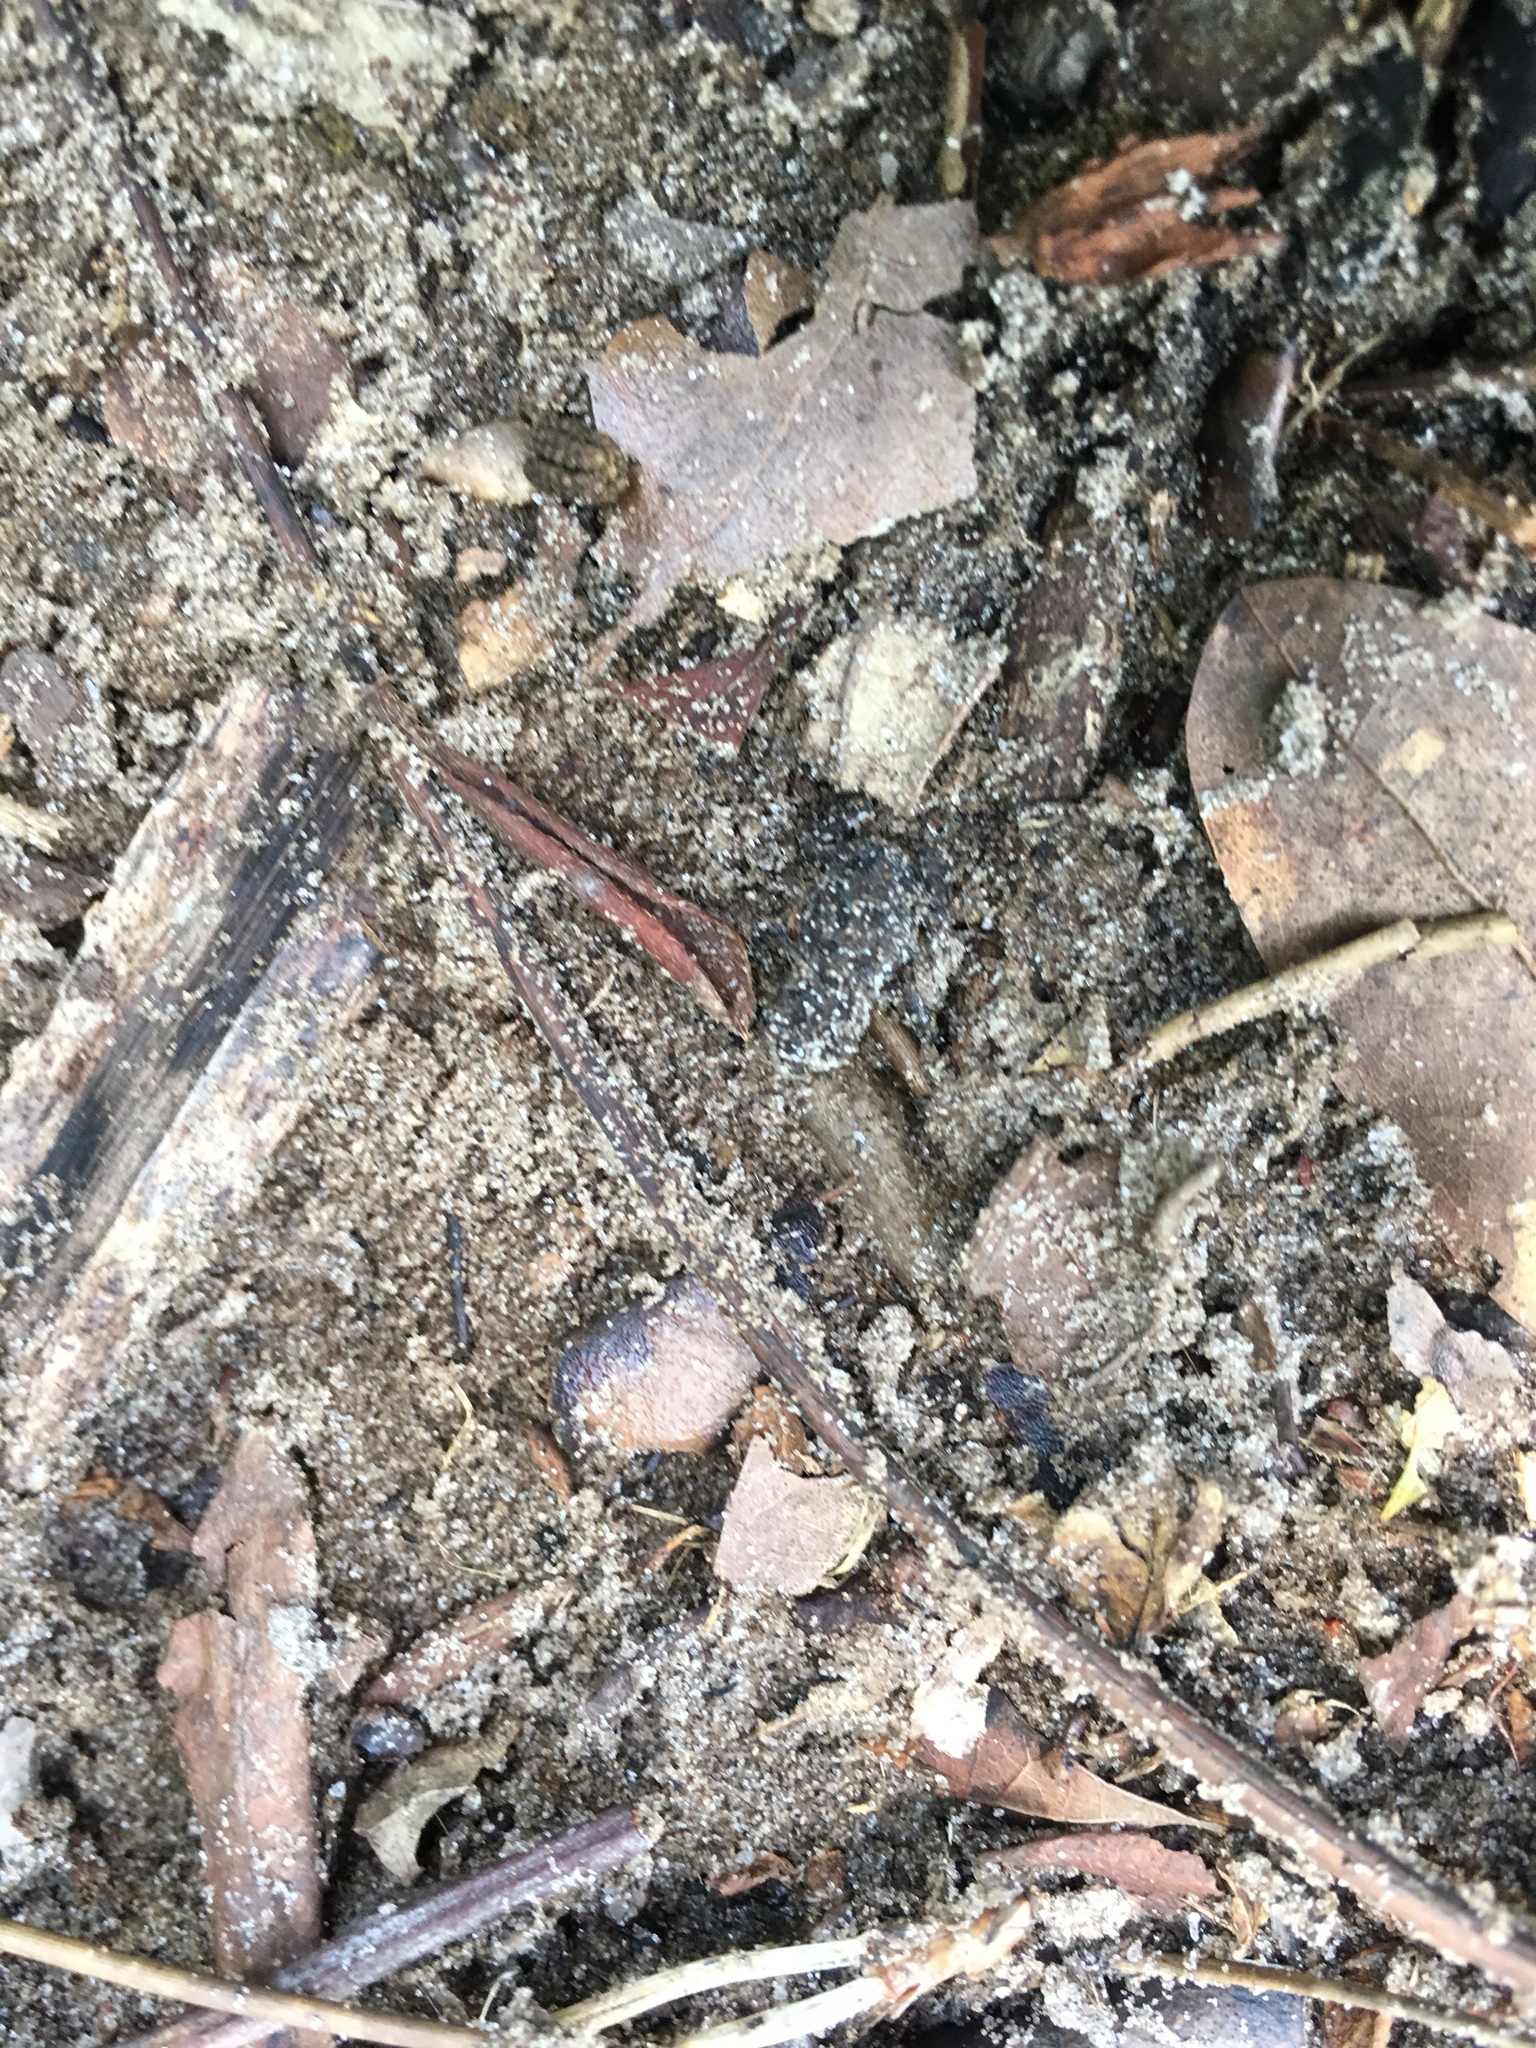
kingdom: Animalia
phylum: Chordata
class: Amphibia
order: Anura
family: Bufonidae
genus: Anaxyrus
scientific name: Anaxyrus terrestris
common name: Southern toad
